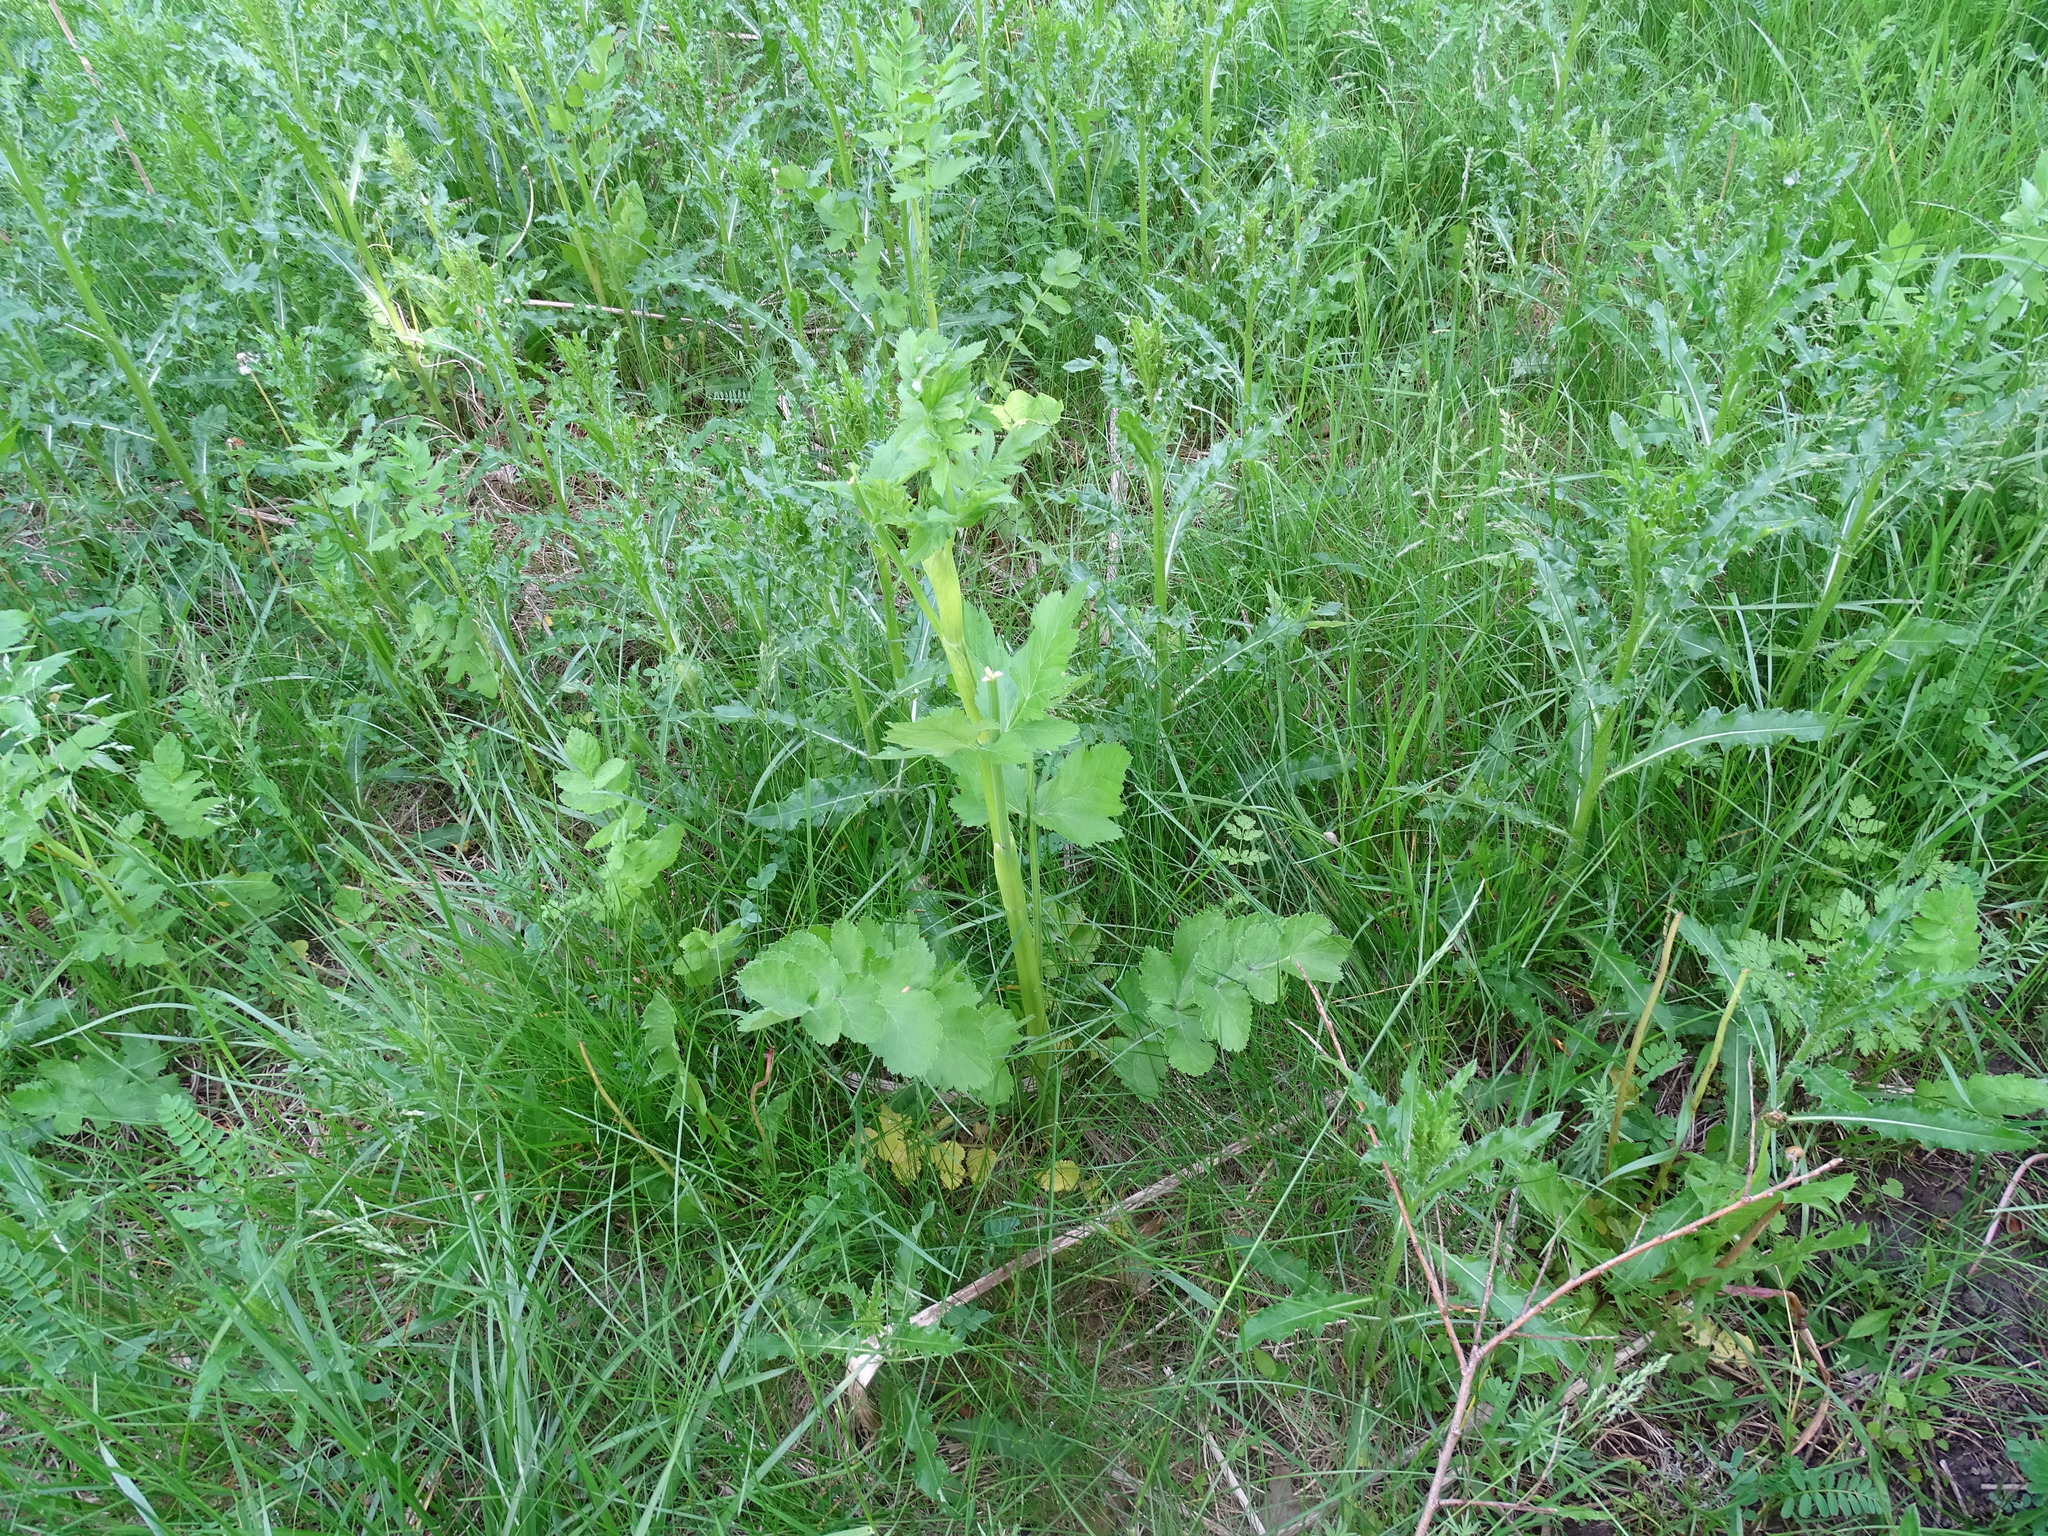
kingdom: Plantae
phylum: Tracheophyta
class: Magnoliopsida
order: Apiales
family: Apiaceae
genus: Pastinaca
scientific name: Pastinaca sativa
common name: Wild parsnip
